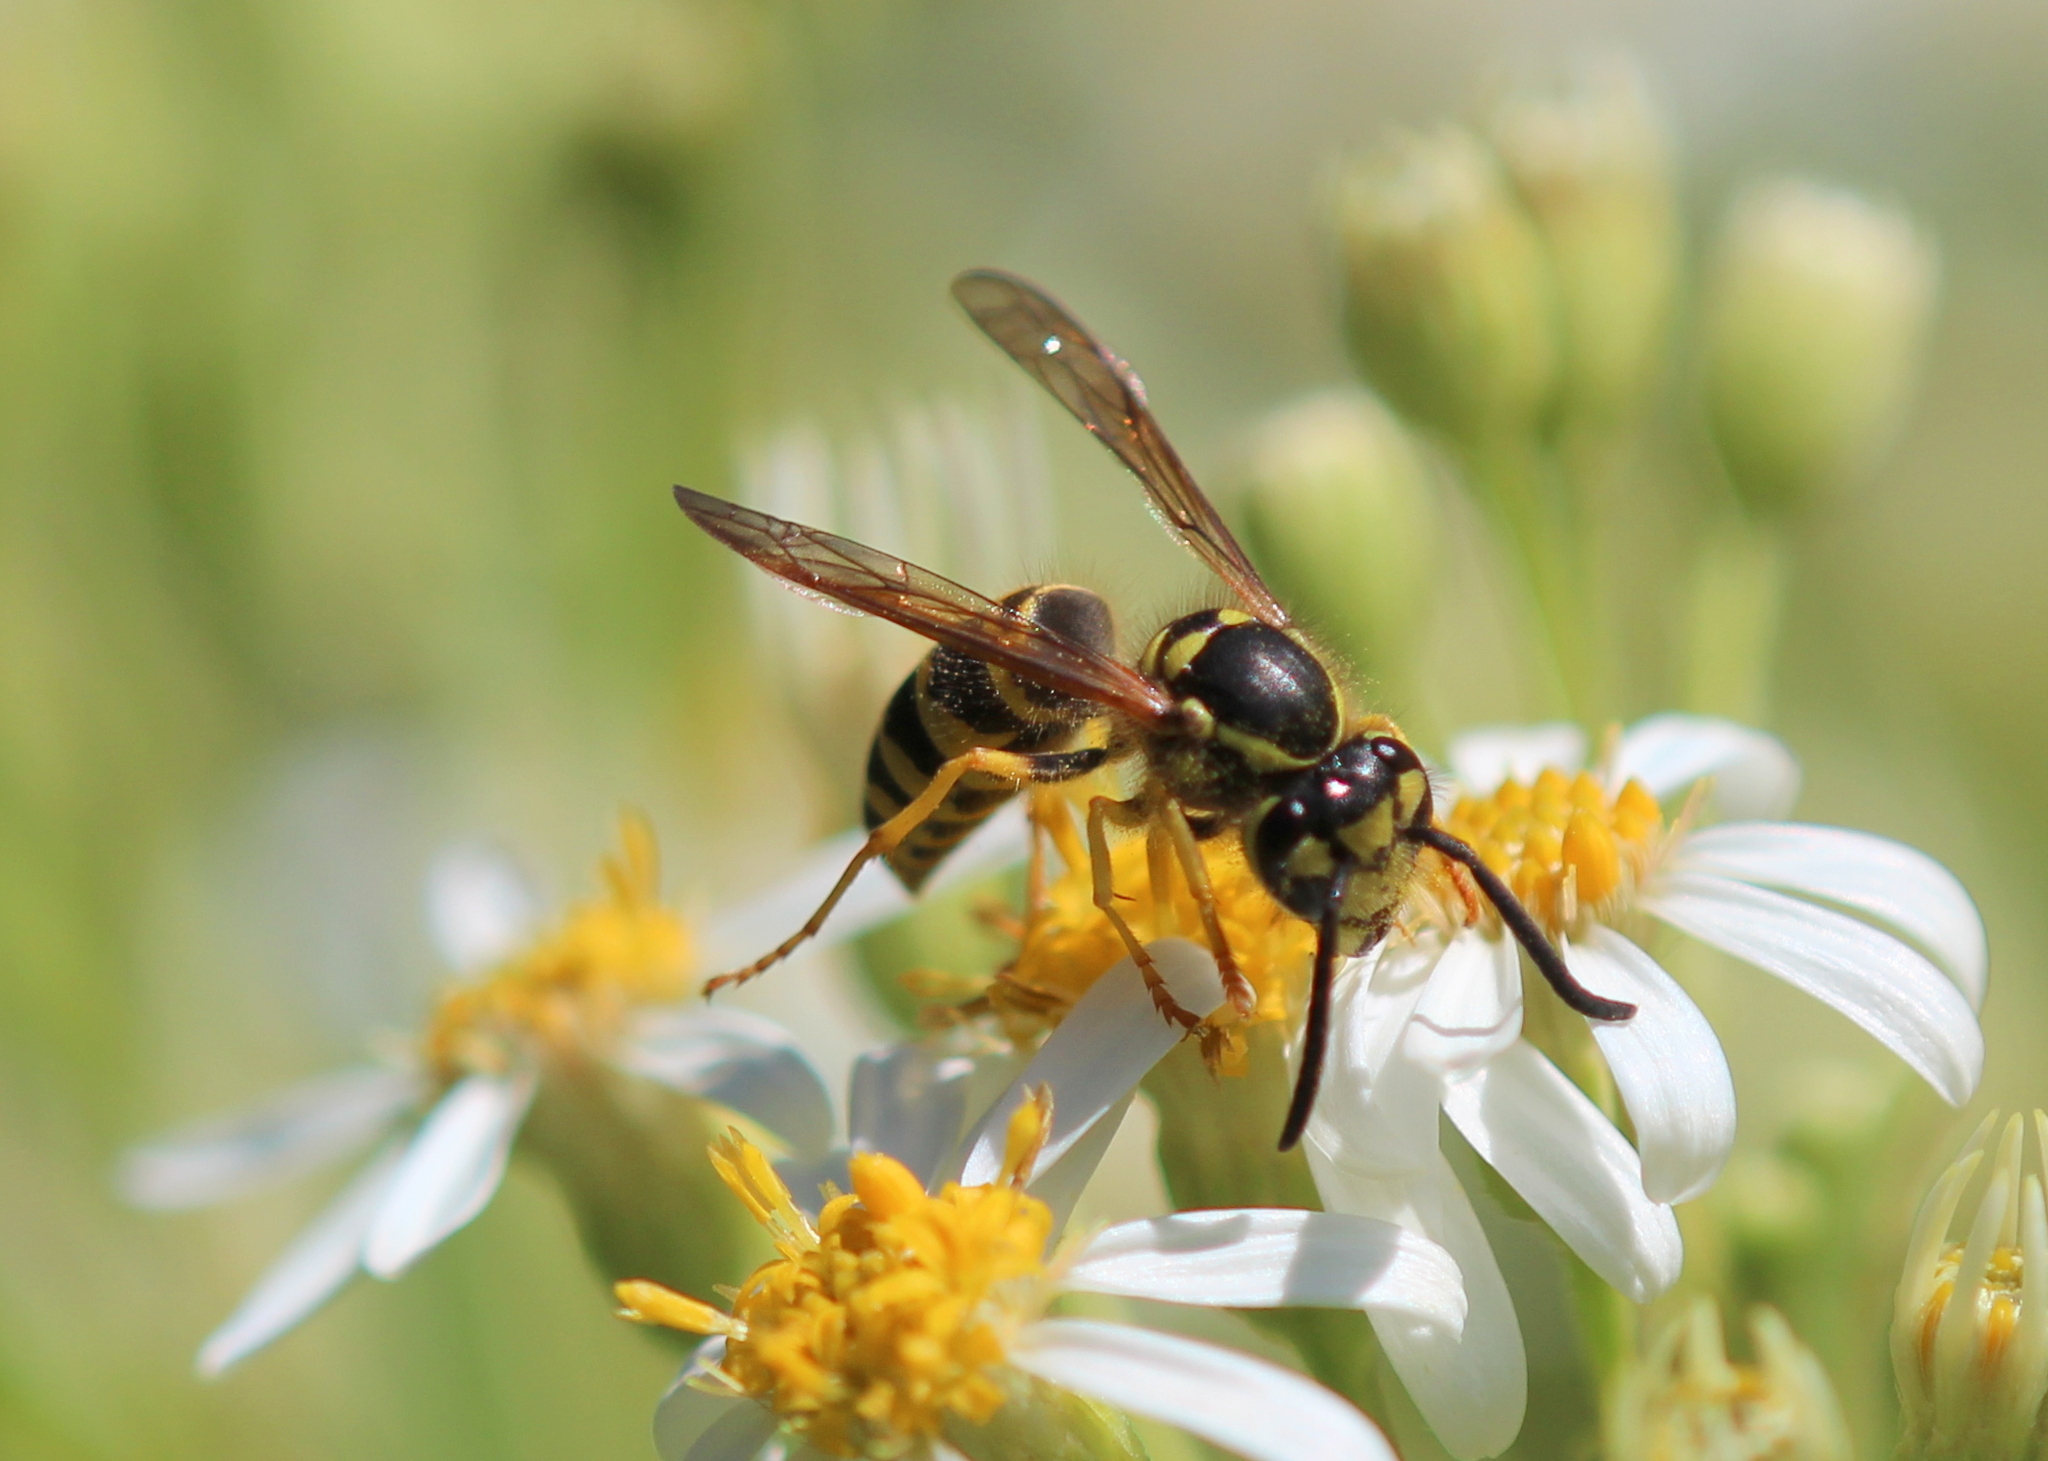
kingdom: Animalia
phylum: Arthropoda
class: Insecta
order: Hymenoptera
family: Vespidae
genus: Vespula
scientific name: Vespula maculifrons
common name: Eastern yellowjacket
